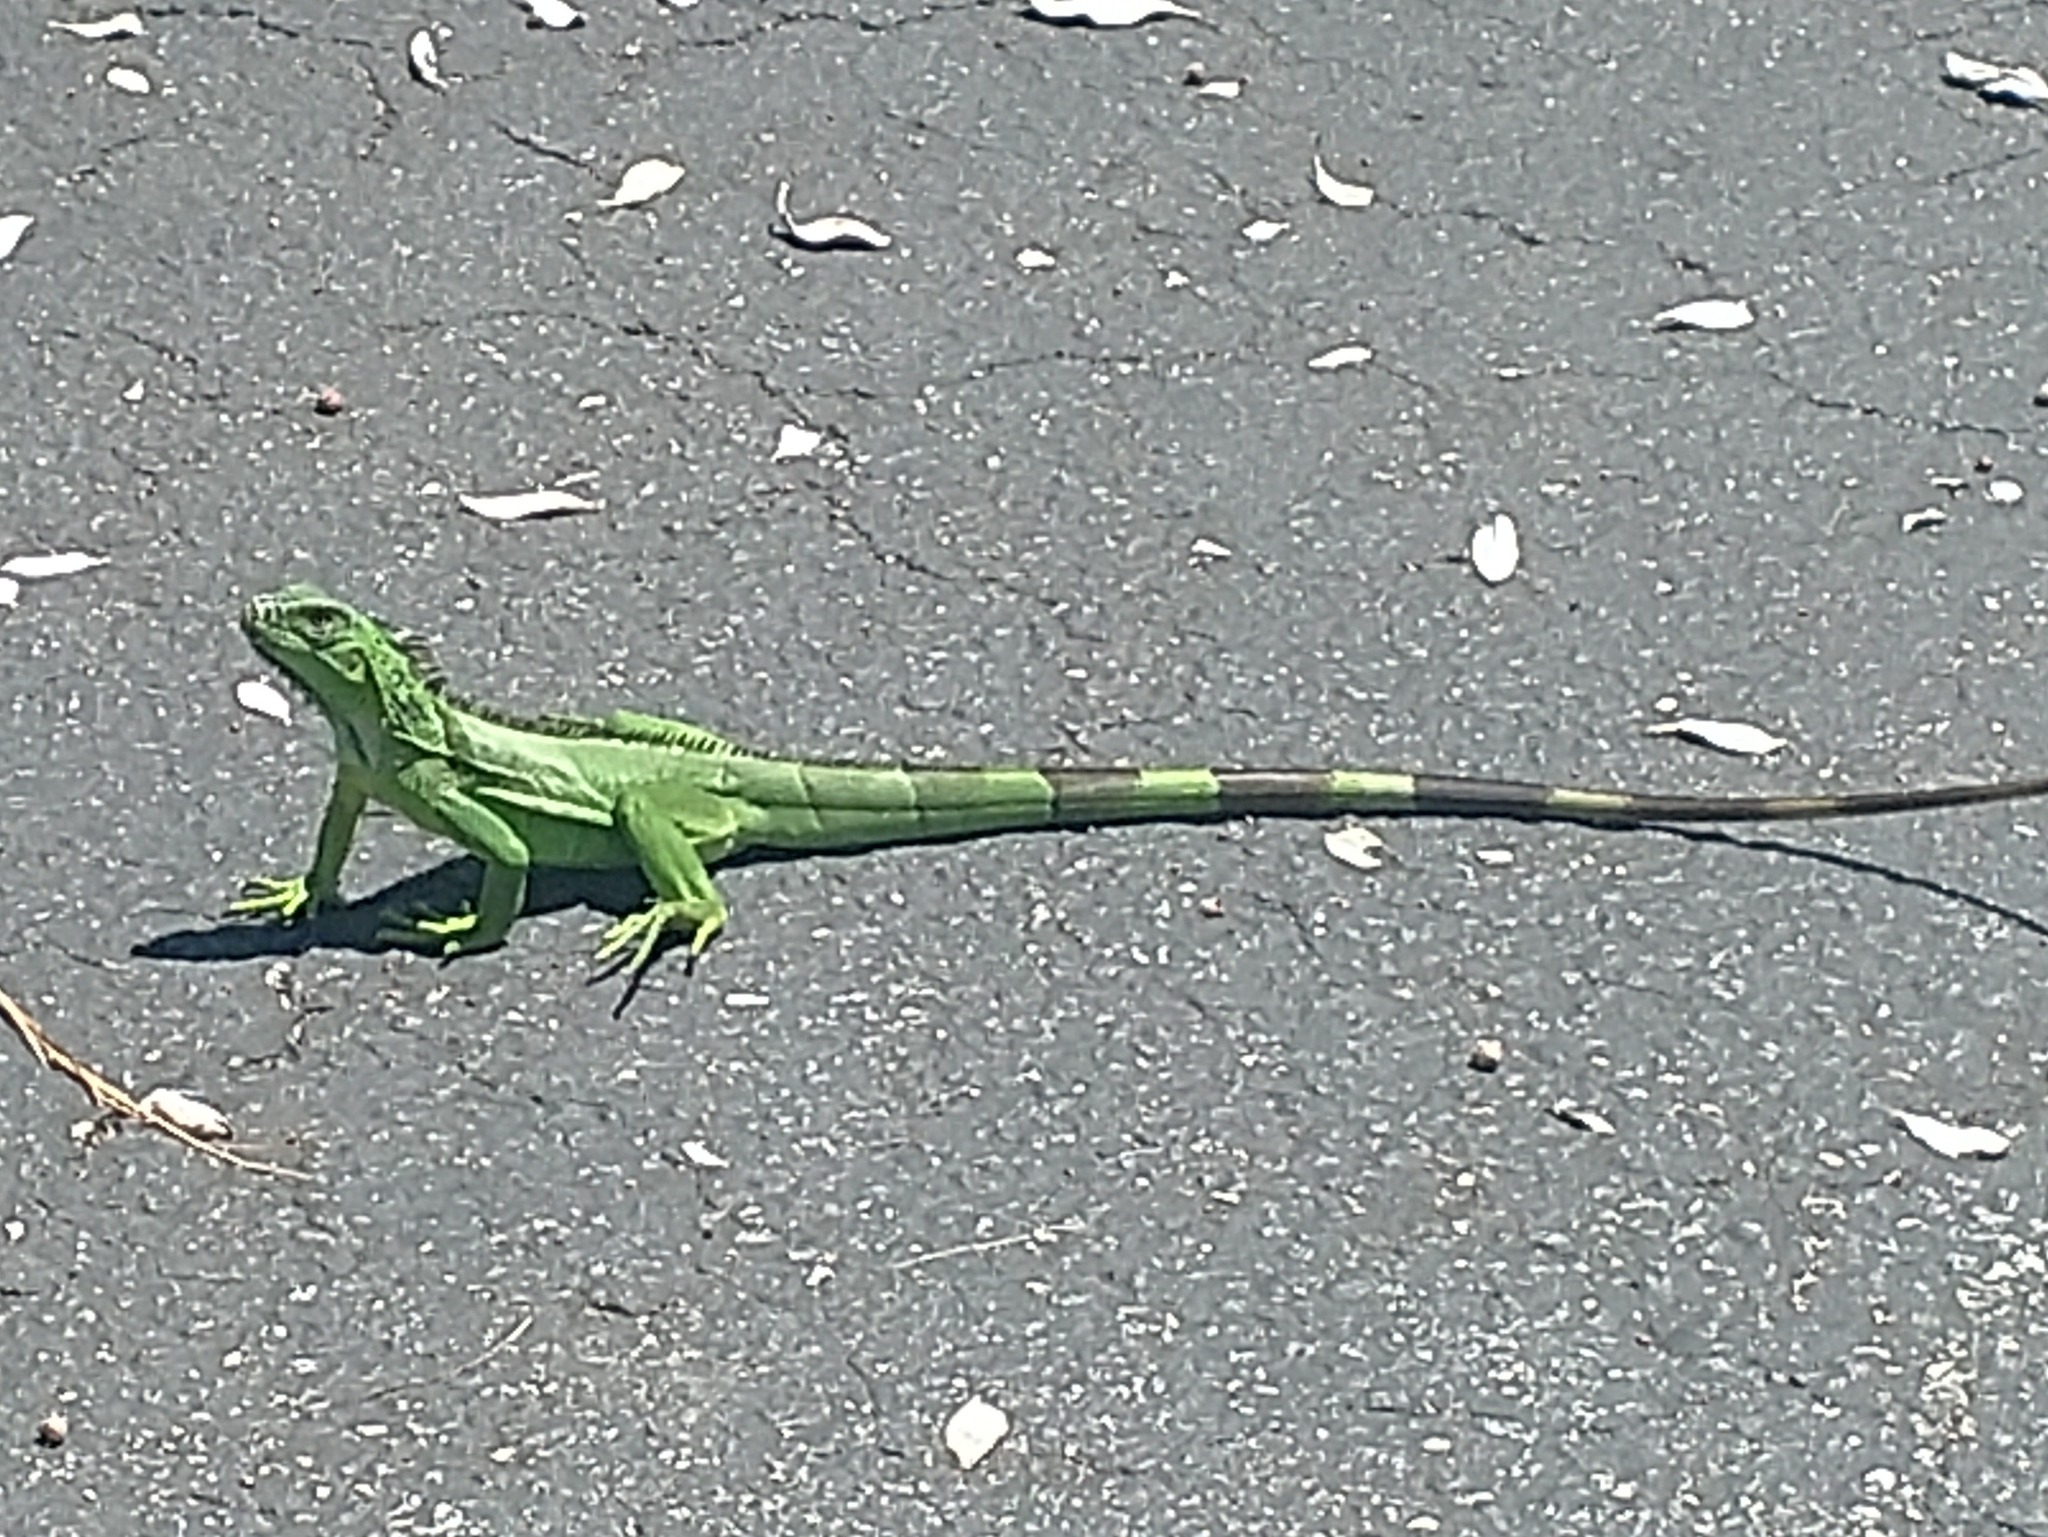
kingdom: Animalia
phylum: Chordata
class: Squamata
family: Iguanidae
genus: Iguana
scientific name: Iguana iguana
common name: Green iguana
